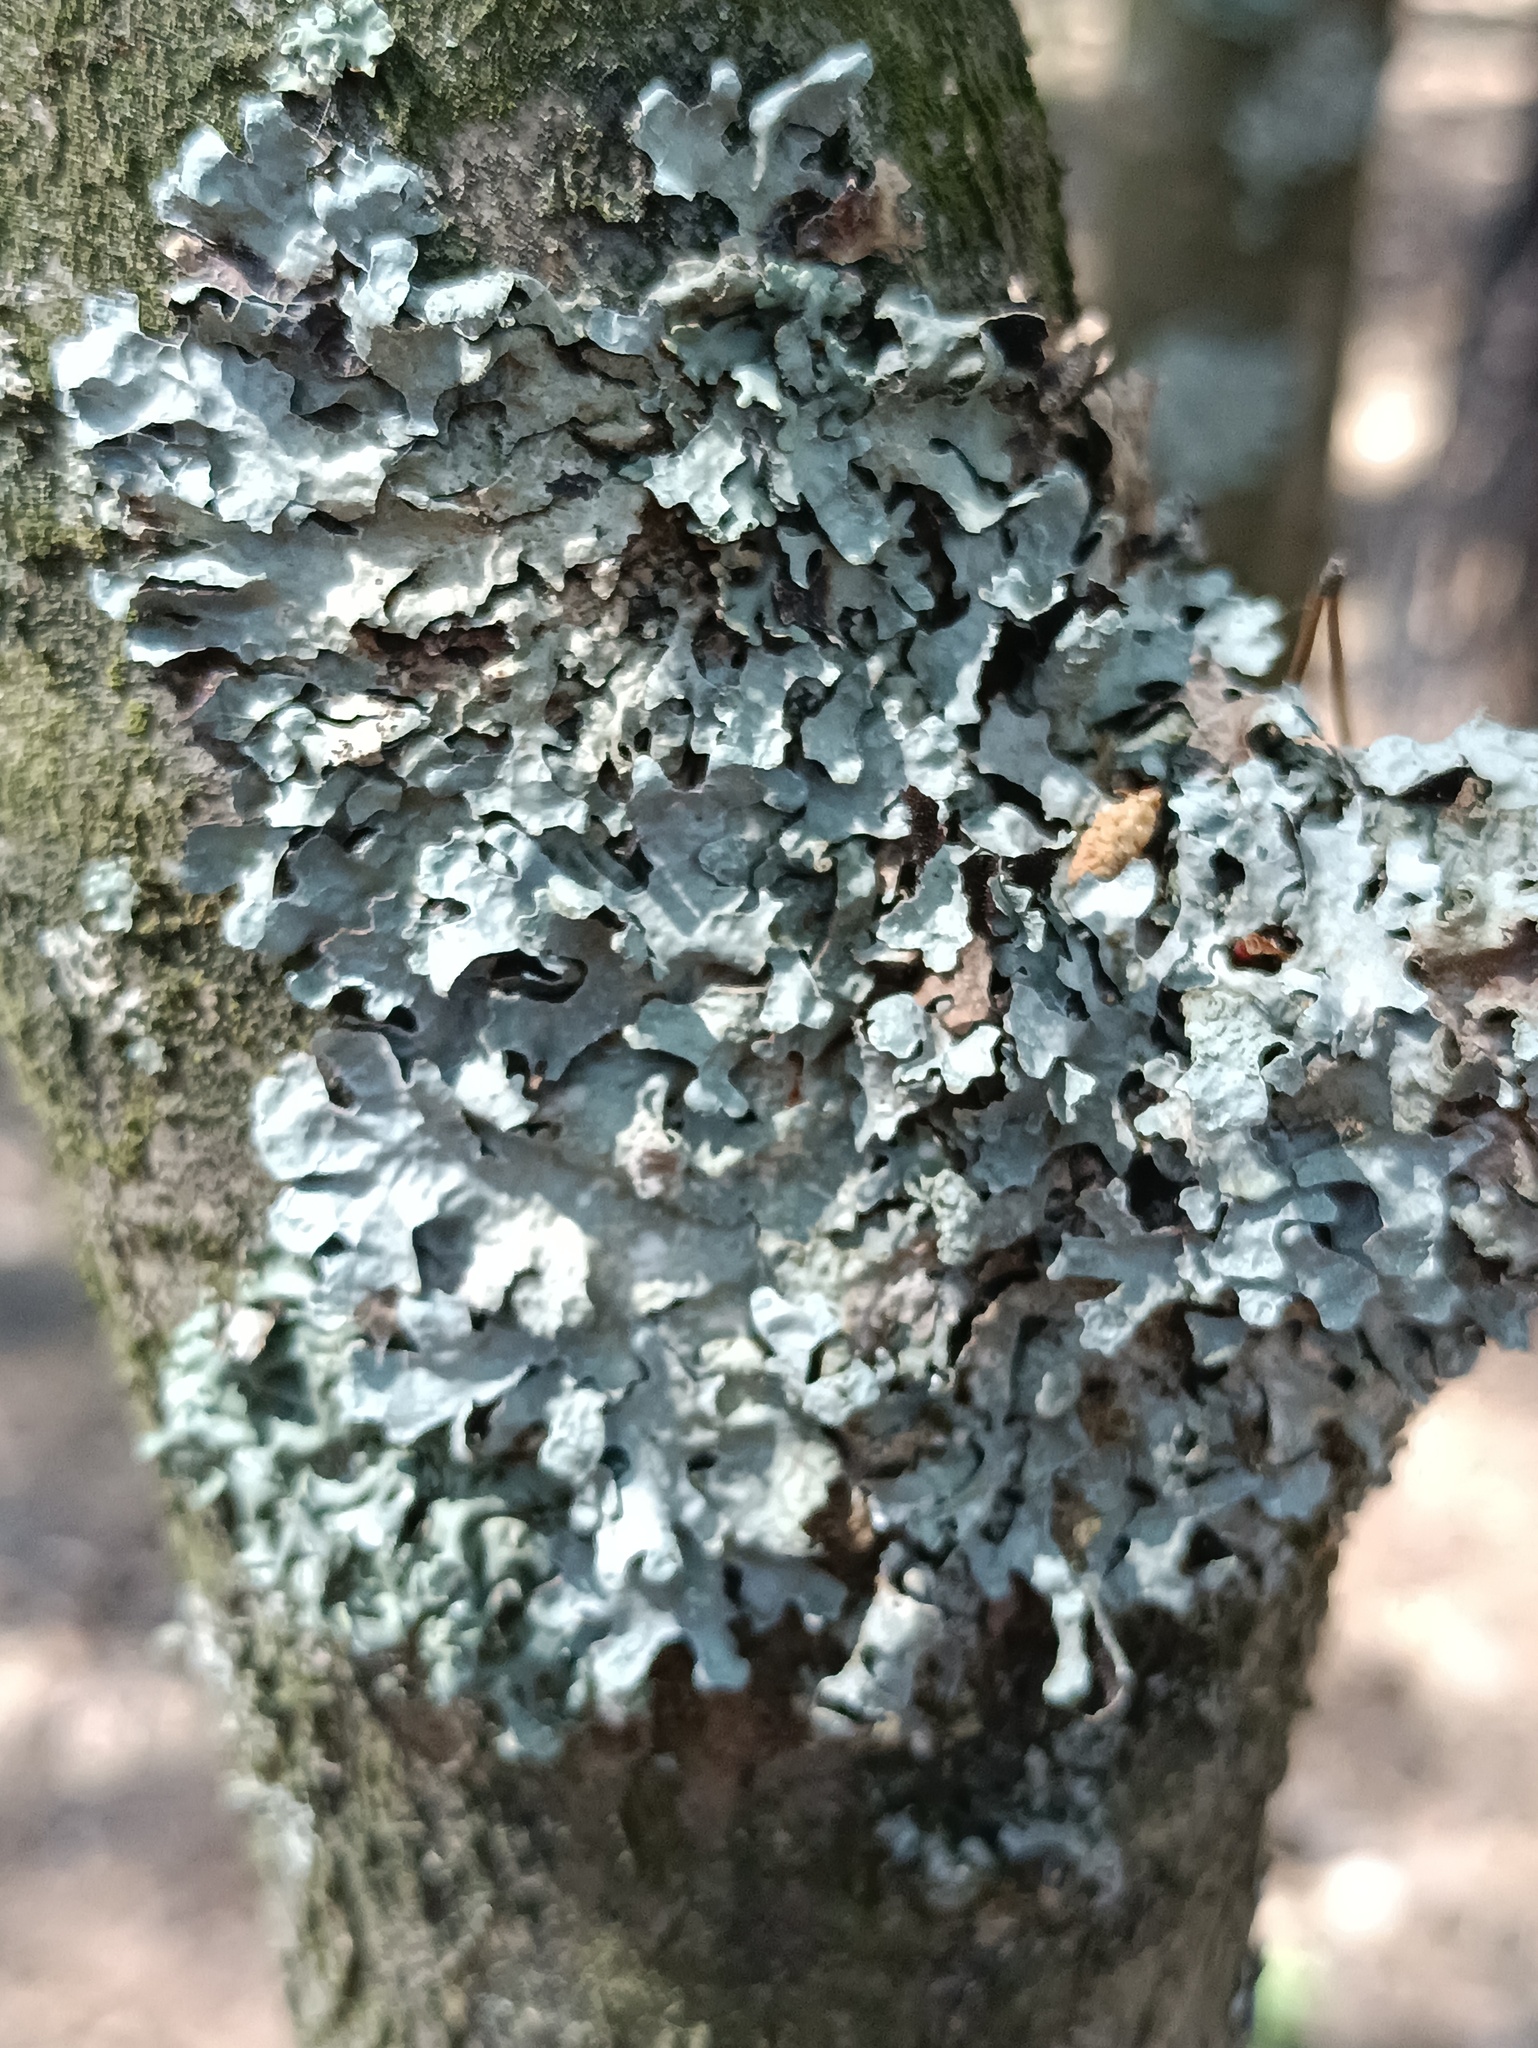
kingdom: Fungi
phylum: Ascomycota
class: Lecanoromycetes
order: Lecanorales
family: Parmeliaceae
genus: Parmelia
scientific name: Parmelia sulcata
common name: Netted shield lichen
